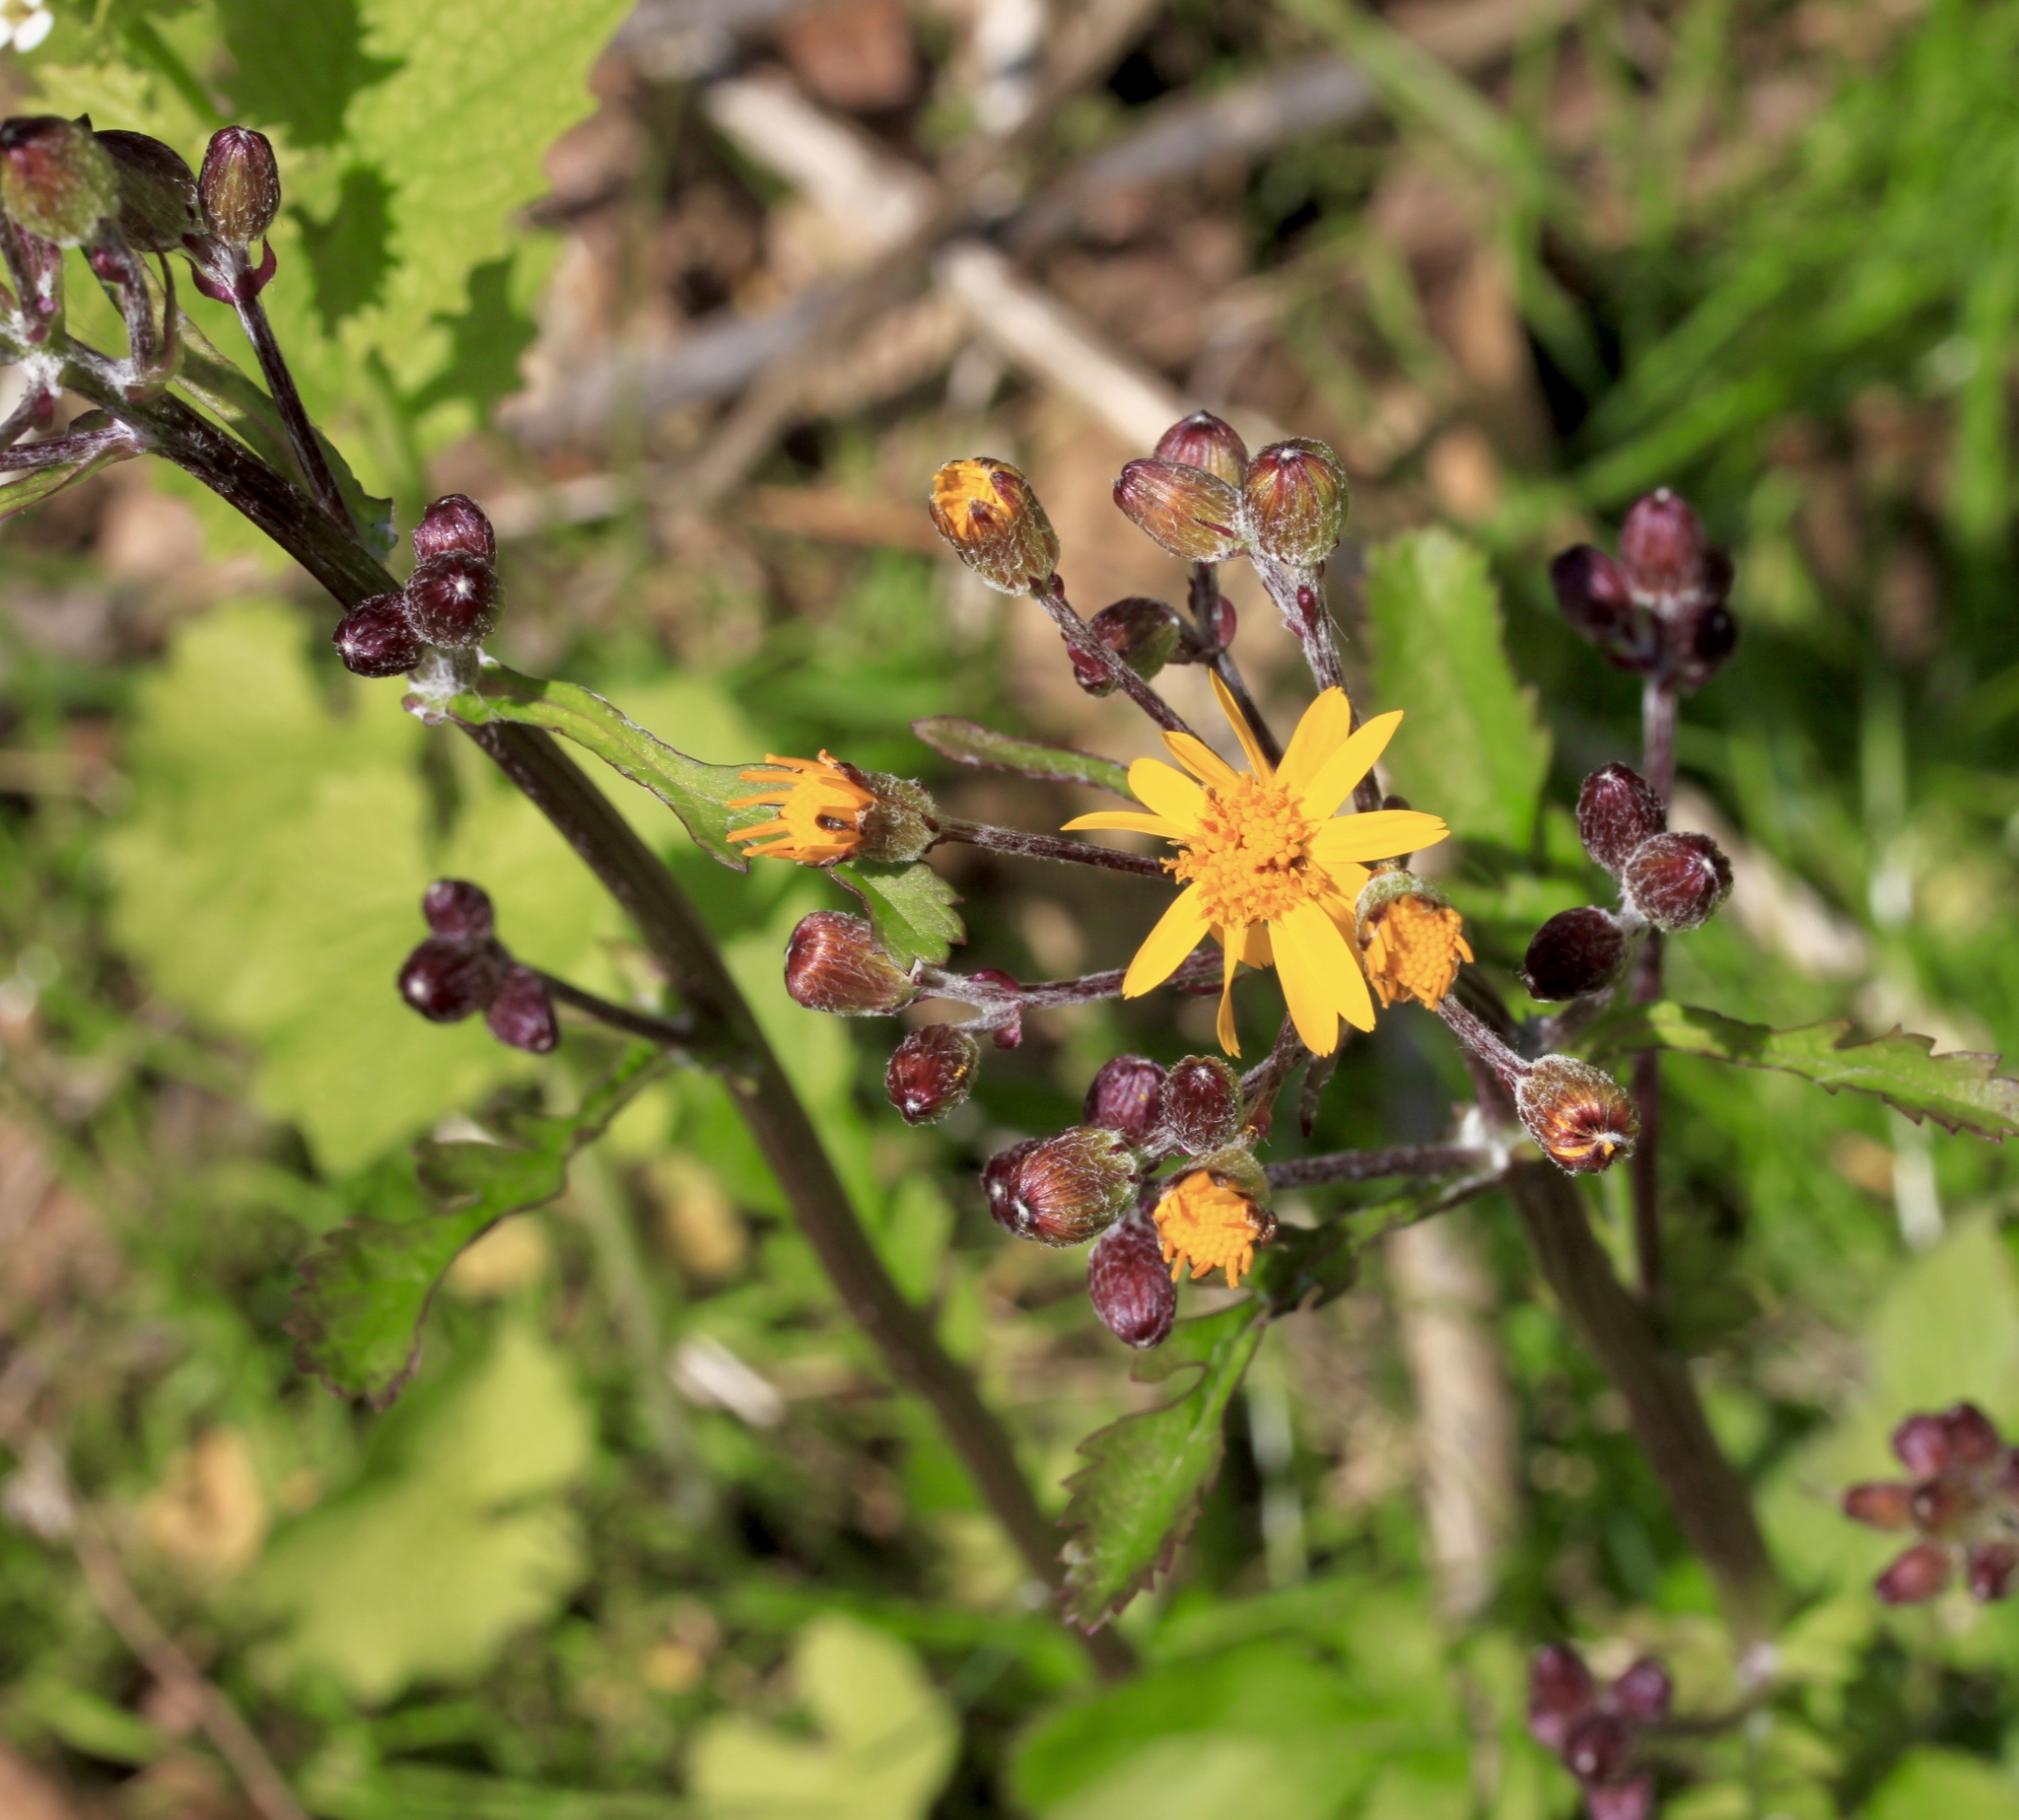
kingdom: Plantae
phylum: Tracheophyta
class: Magnoliopsida
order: Asterales
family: Asteraceae
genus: Packera
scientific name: Packera aurea
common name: Golden groundsel
